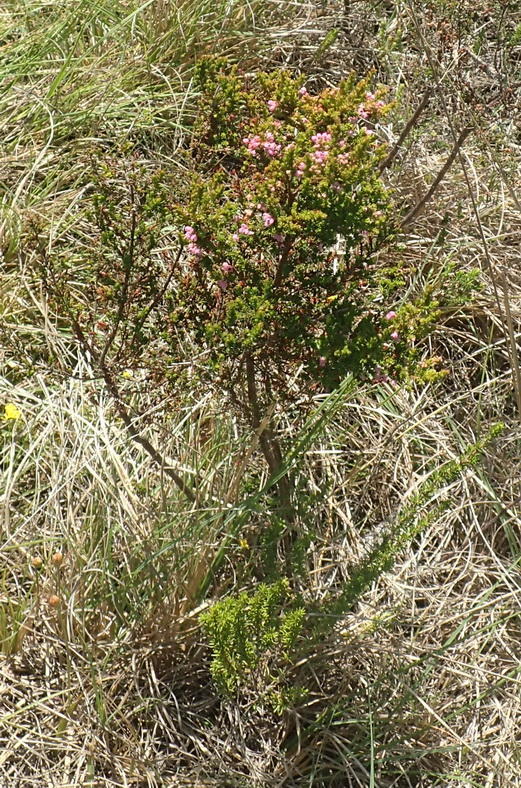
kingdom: Plantae
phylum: Tracheophyta
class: Magnoliopsida
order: Ericales
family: Ericaceae
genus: Erica
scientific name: Erica sparsa
